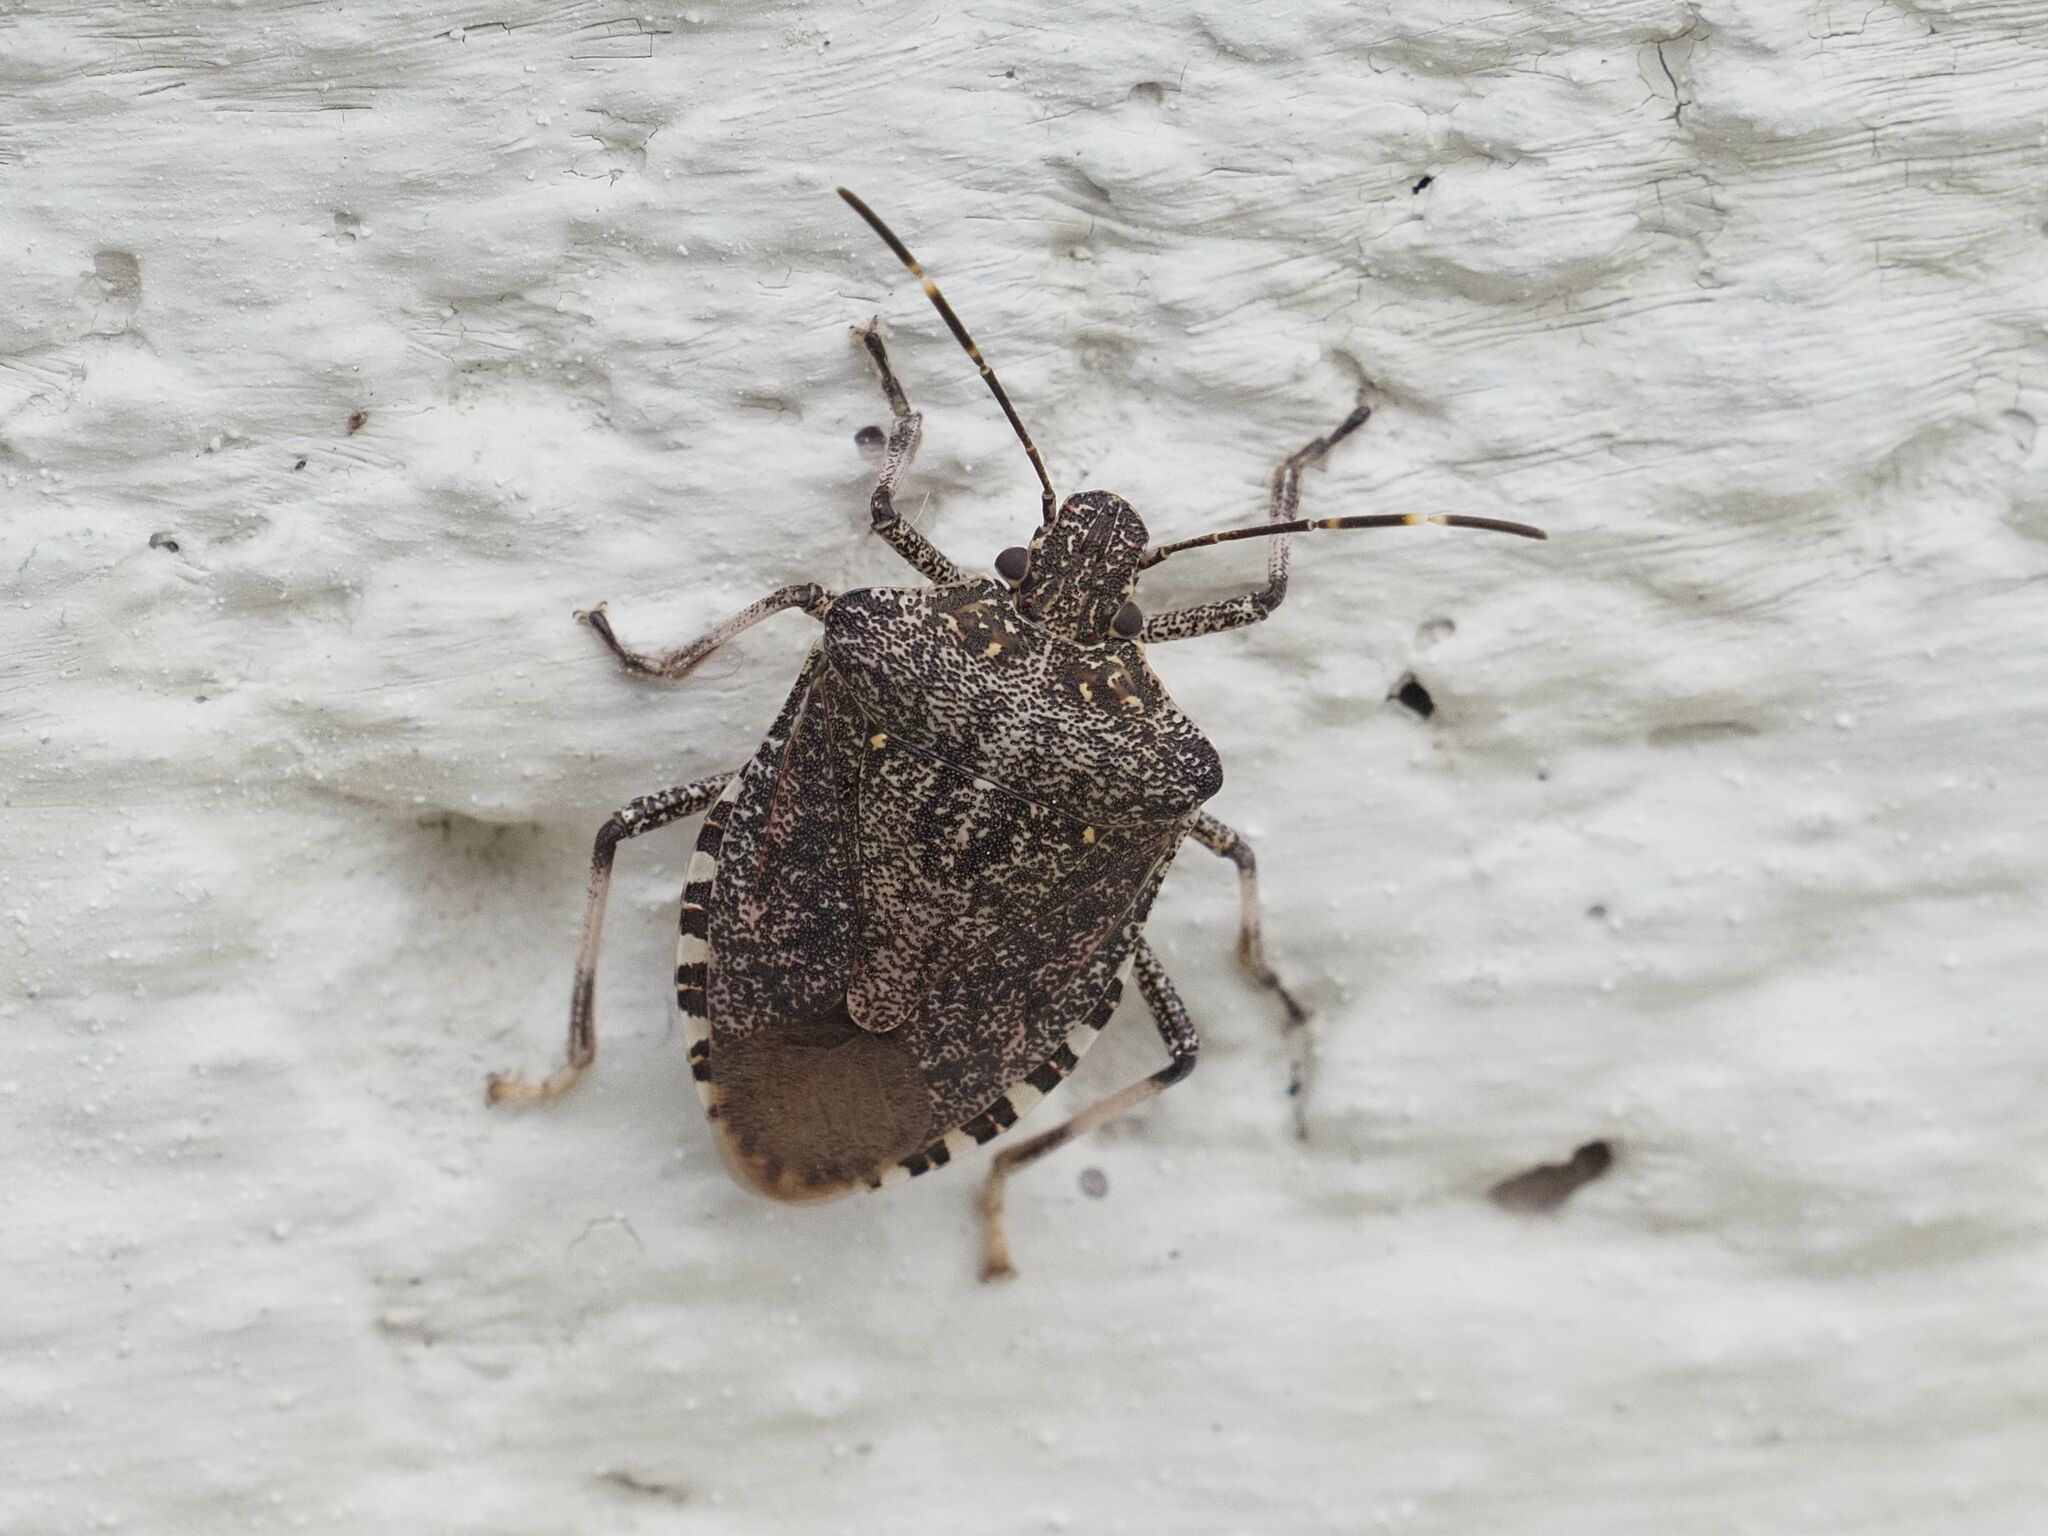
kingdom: Animalia
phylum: Arthropoda
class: Insecta
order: Hemiptera
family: Pentatomidae
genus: Halyomorpha
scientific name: Halyomorpha halys
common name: Brown marmorated stink bug
